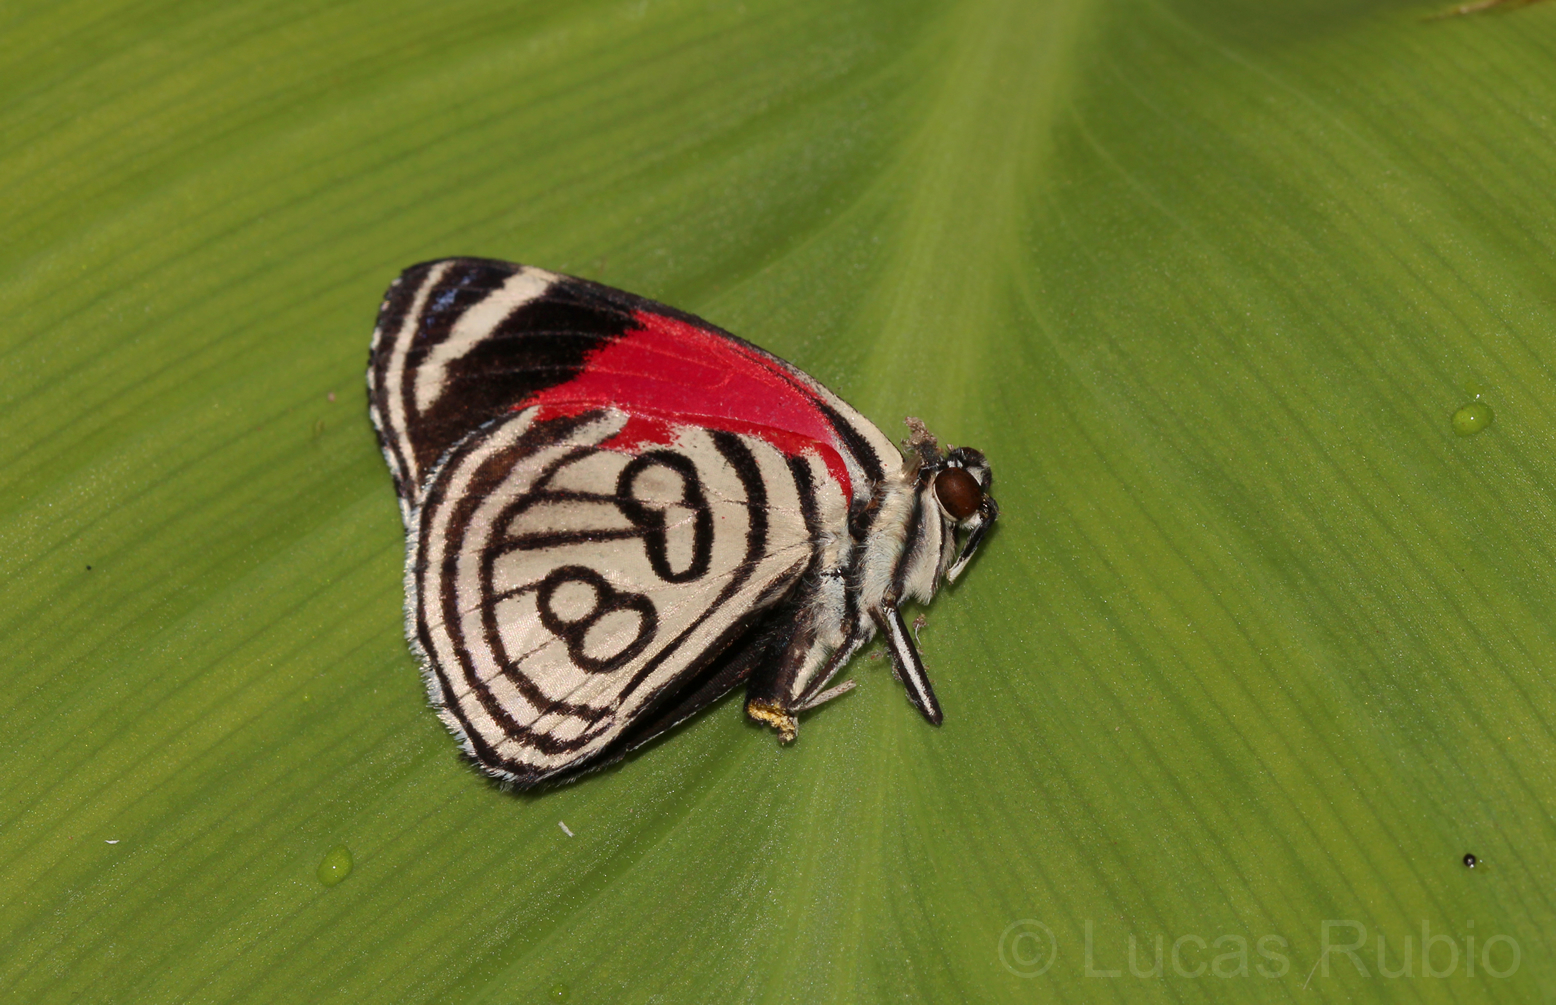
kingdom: Animalia
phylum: Arthropoda
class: Insecta
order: Lepidoptera
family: Nymphalidae
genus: Diaethria
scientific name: Diaethria clymena
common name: Widespread eighty-eight
